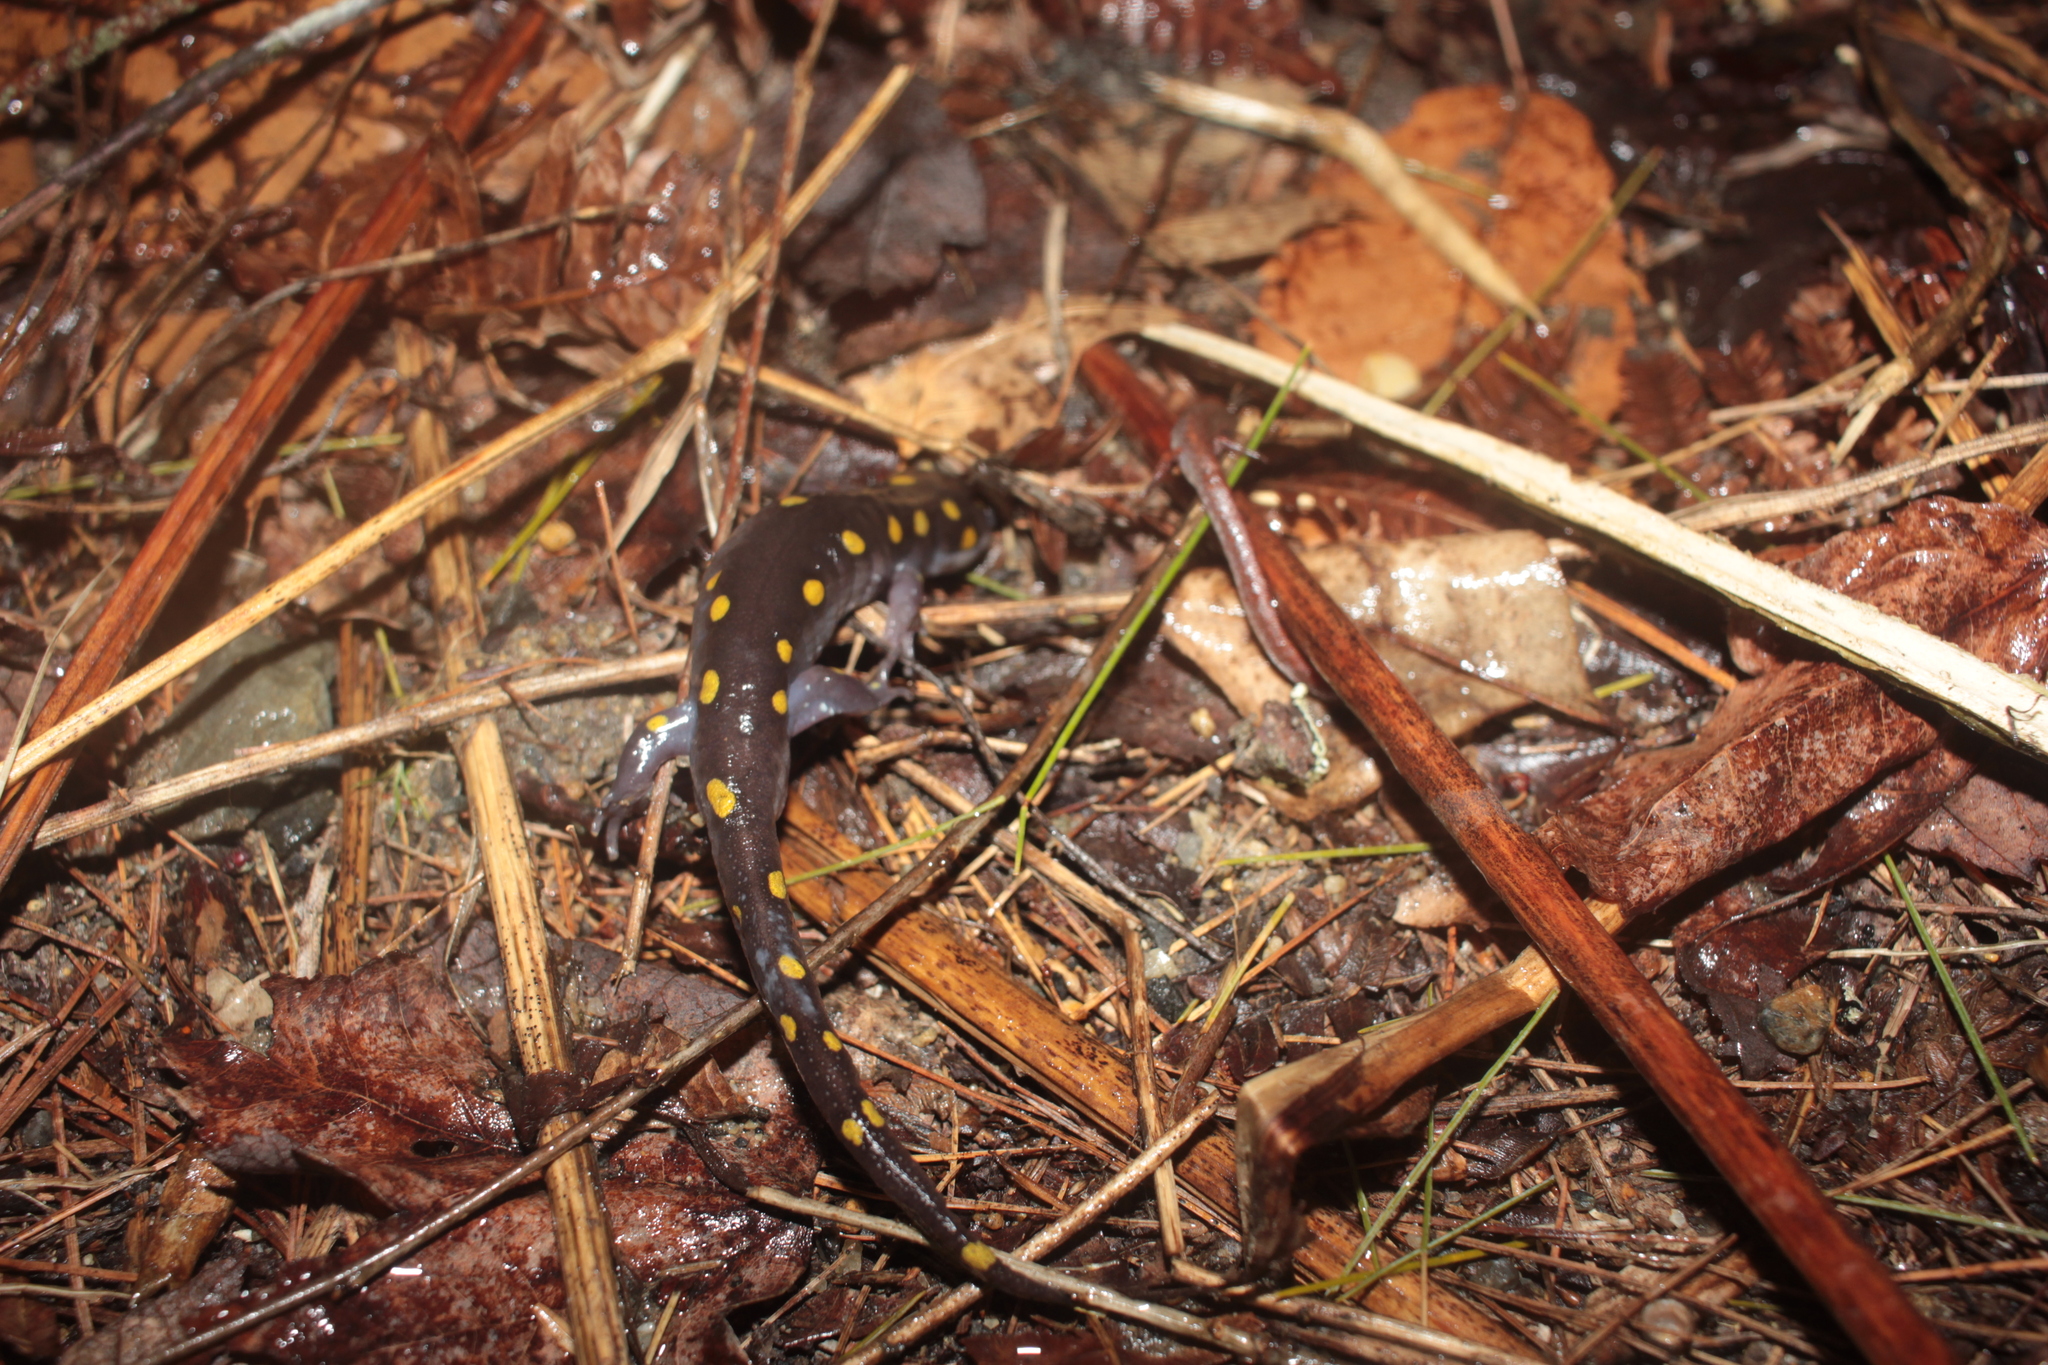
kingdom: Animalia
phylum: Chordata
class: Amphibia
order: Caudata
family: Ambystomatidae
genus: Ambystoma
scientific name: Ambystoma maculatum
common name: Spotted salamander
